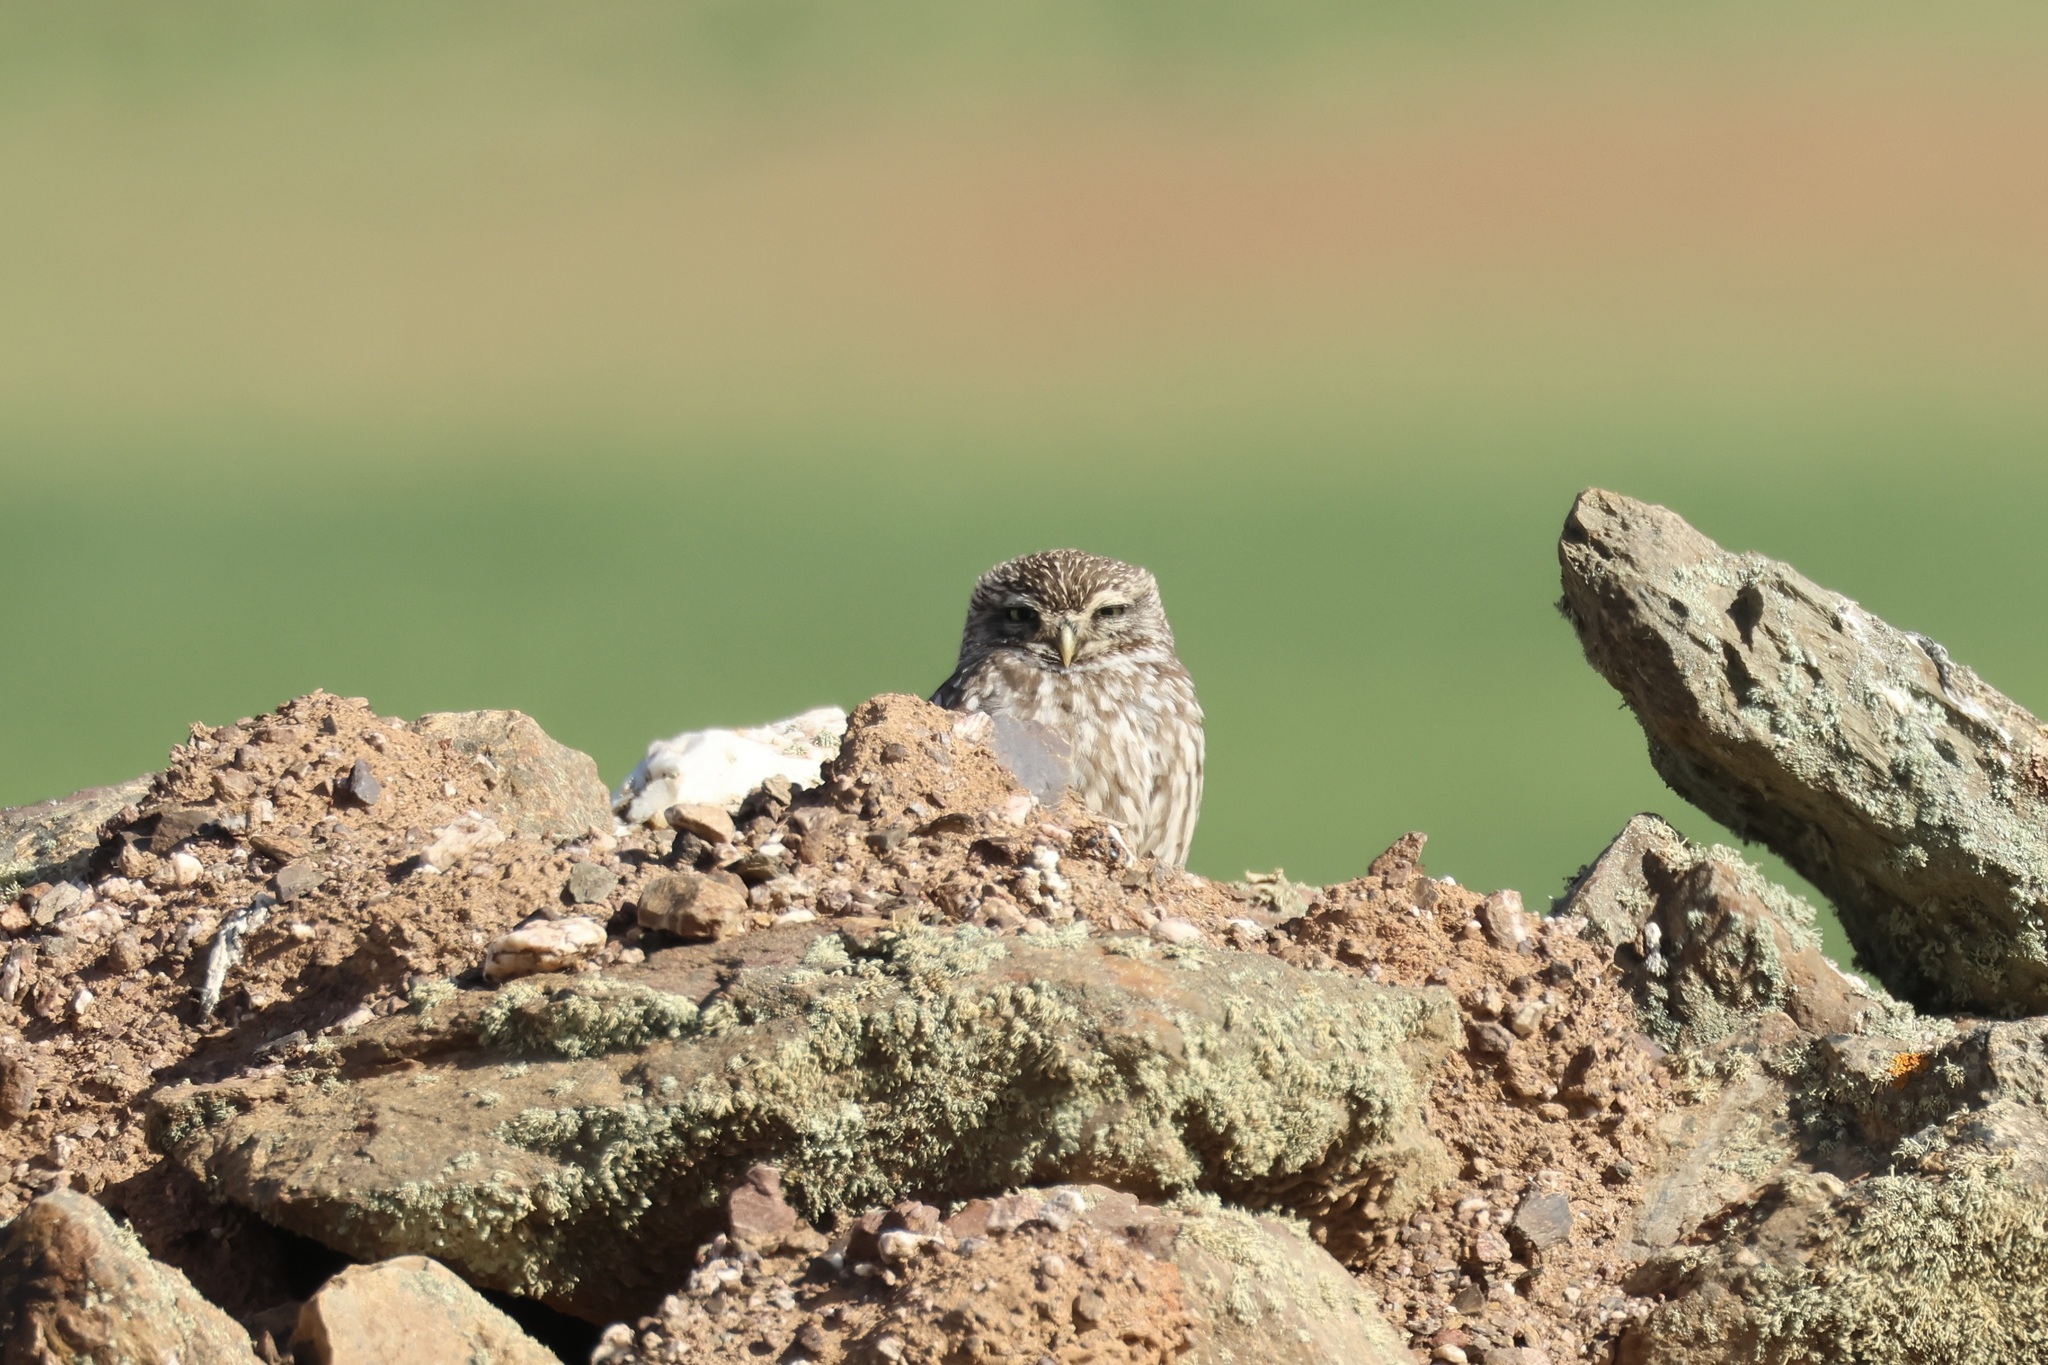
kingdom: Animalia
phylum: Chordata
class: Aves
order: Strigiformes
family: Strigidae
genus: Athene
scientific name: Athene noctua
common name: Little owl
